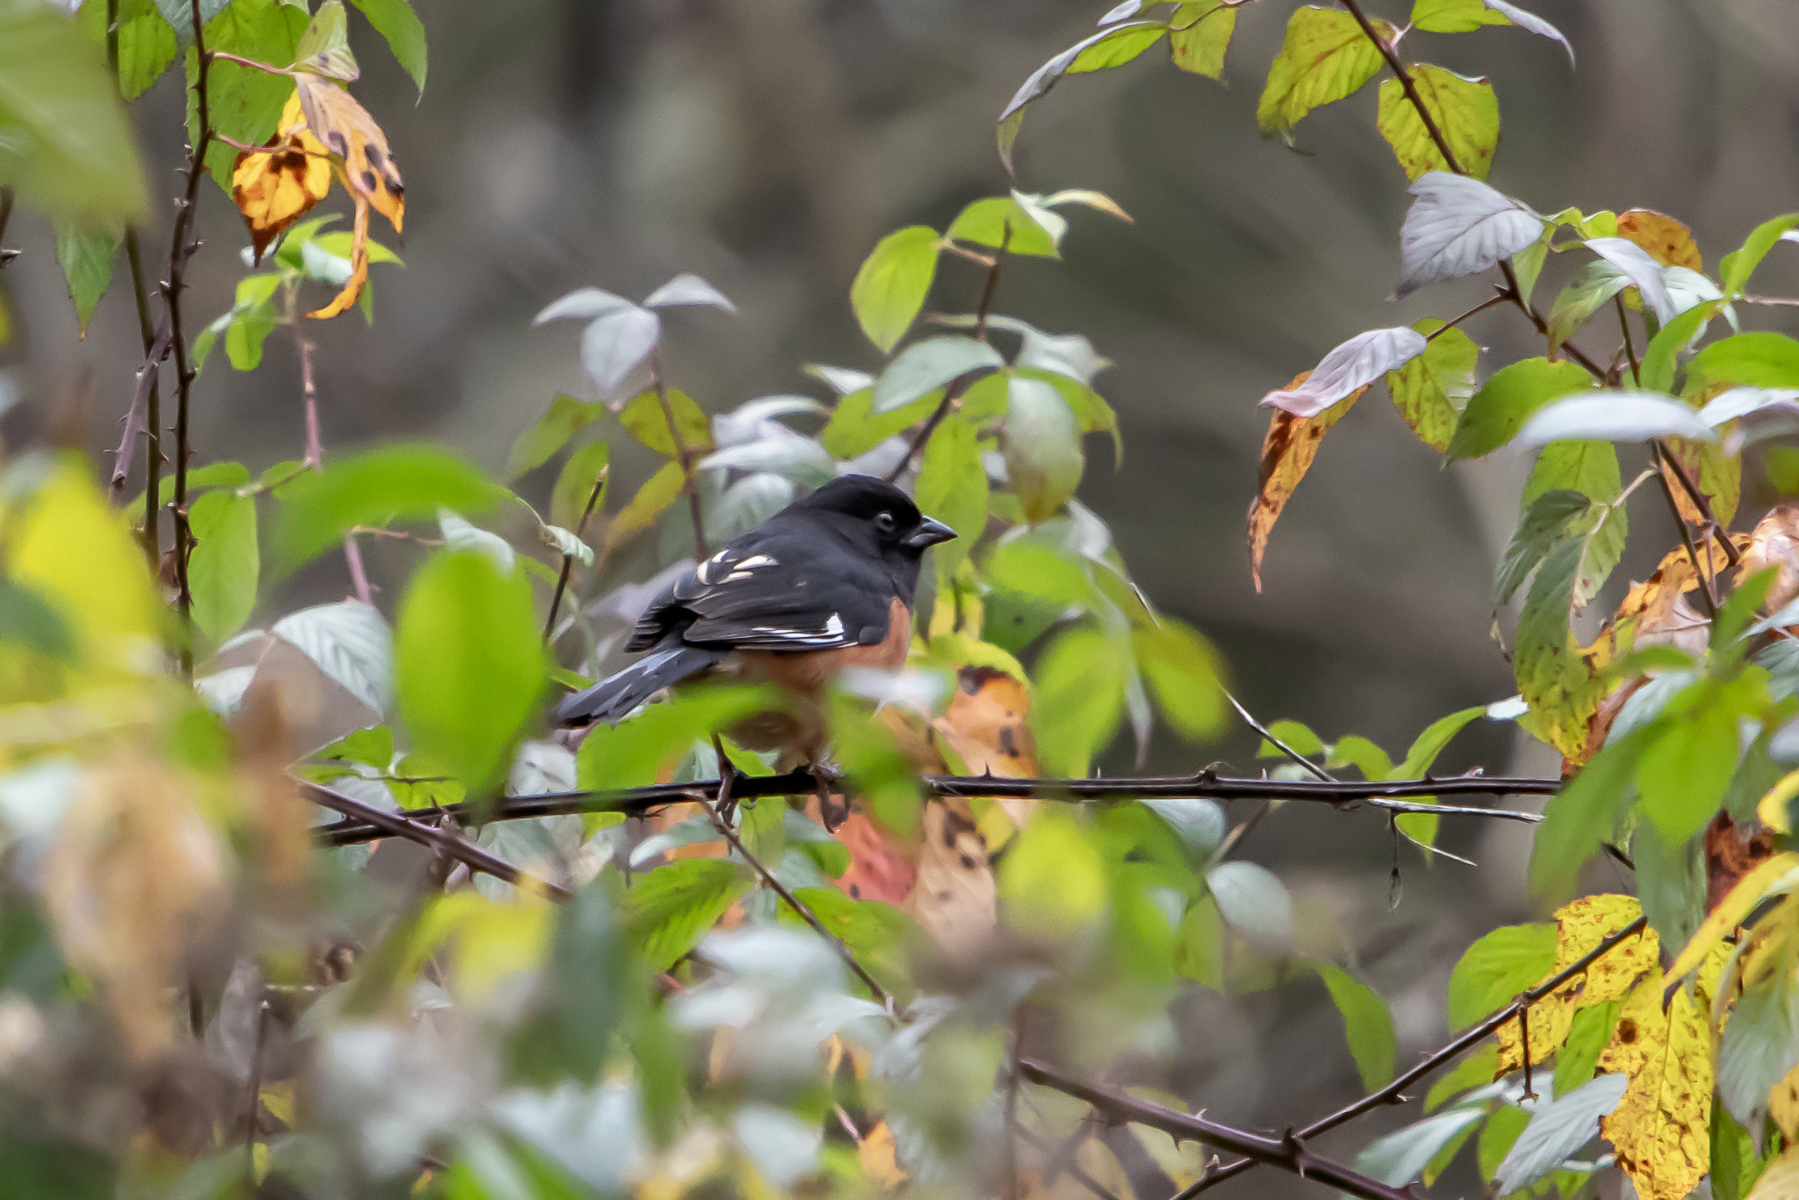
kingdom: Animalia
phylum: Chordata
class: Aves
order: Passeriformes
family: Passerellidae
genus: Pipilo
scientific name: Pipilo erythrophthalmus
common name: Eastern towhee
